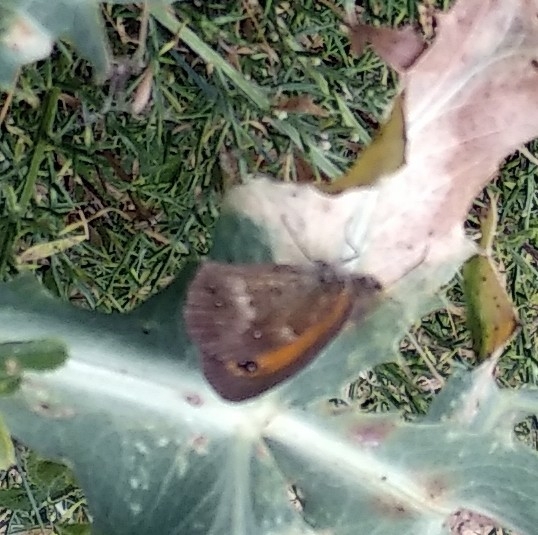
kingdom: Animalia
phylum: Arthropoda
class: Insecta
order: Lepidoptera
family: Nymphalidae
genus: Pyronia
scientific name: Pyronia tithonus
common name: Gatekeeper
